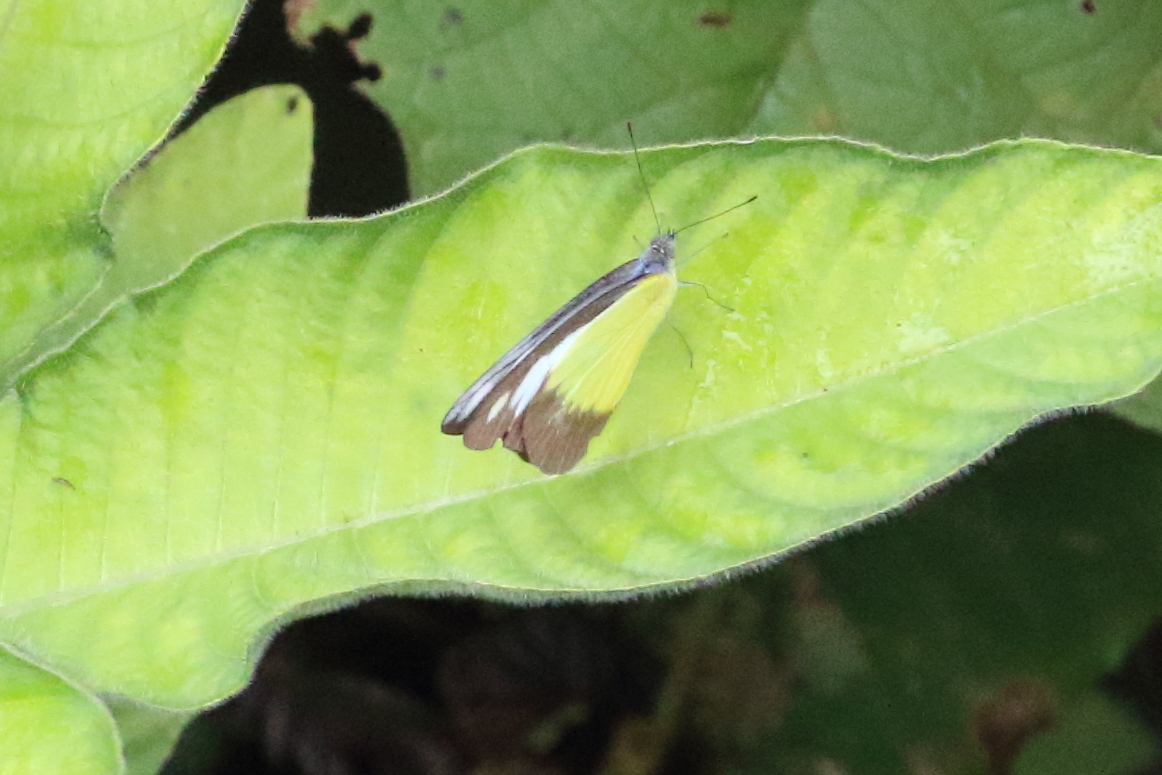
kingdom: Animalia
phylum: Arthropoda
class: Insecta
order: Lepidoptera
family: Pieridae
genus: Appias
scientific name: Appias lyncida
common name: Chocolate albatross
